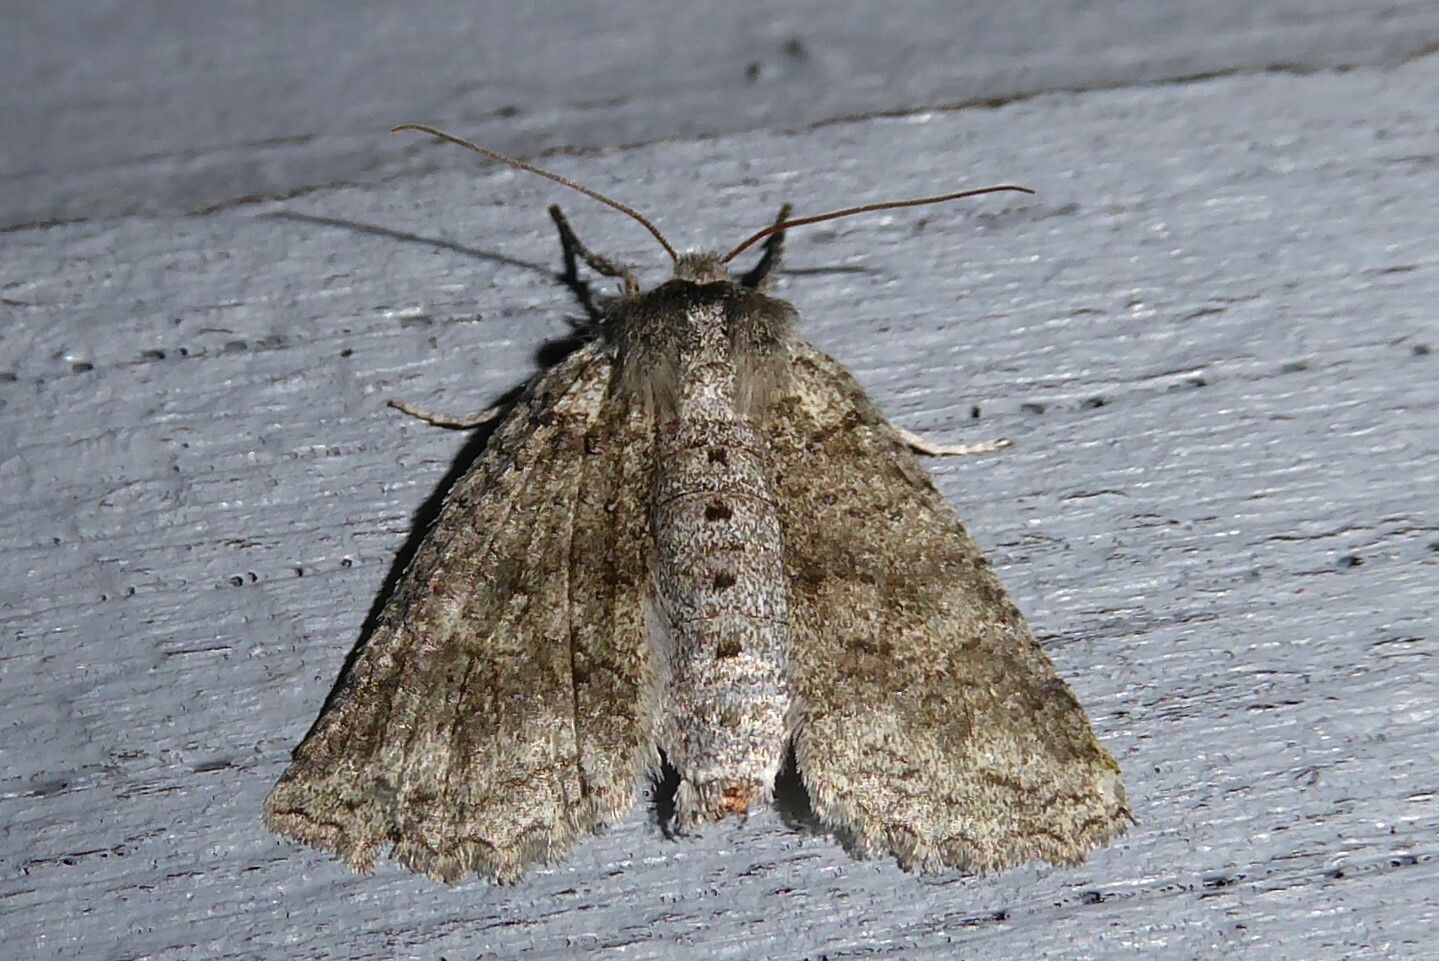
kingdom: Animalia
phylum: Arthropoda
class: Insecta
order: Lepidoptera
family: Geometridae
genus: Declana
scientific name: Declana floccosa
